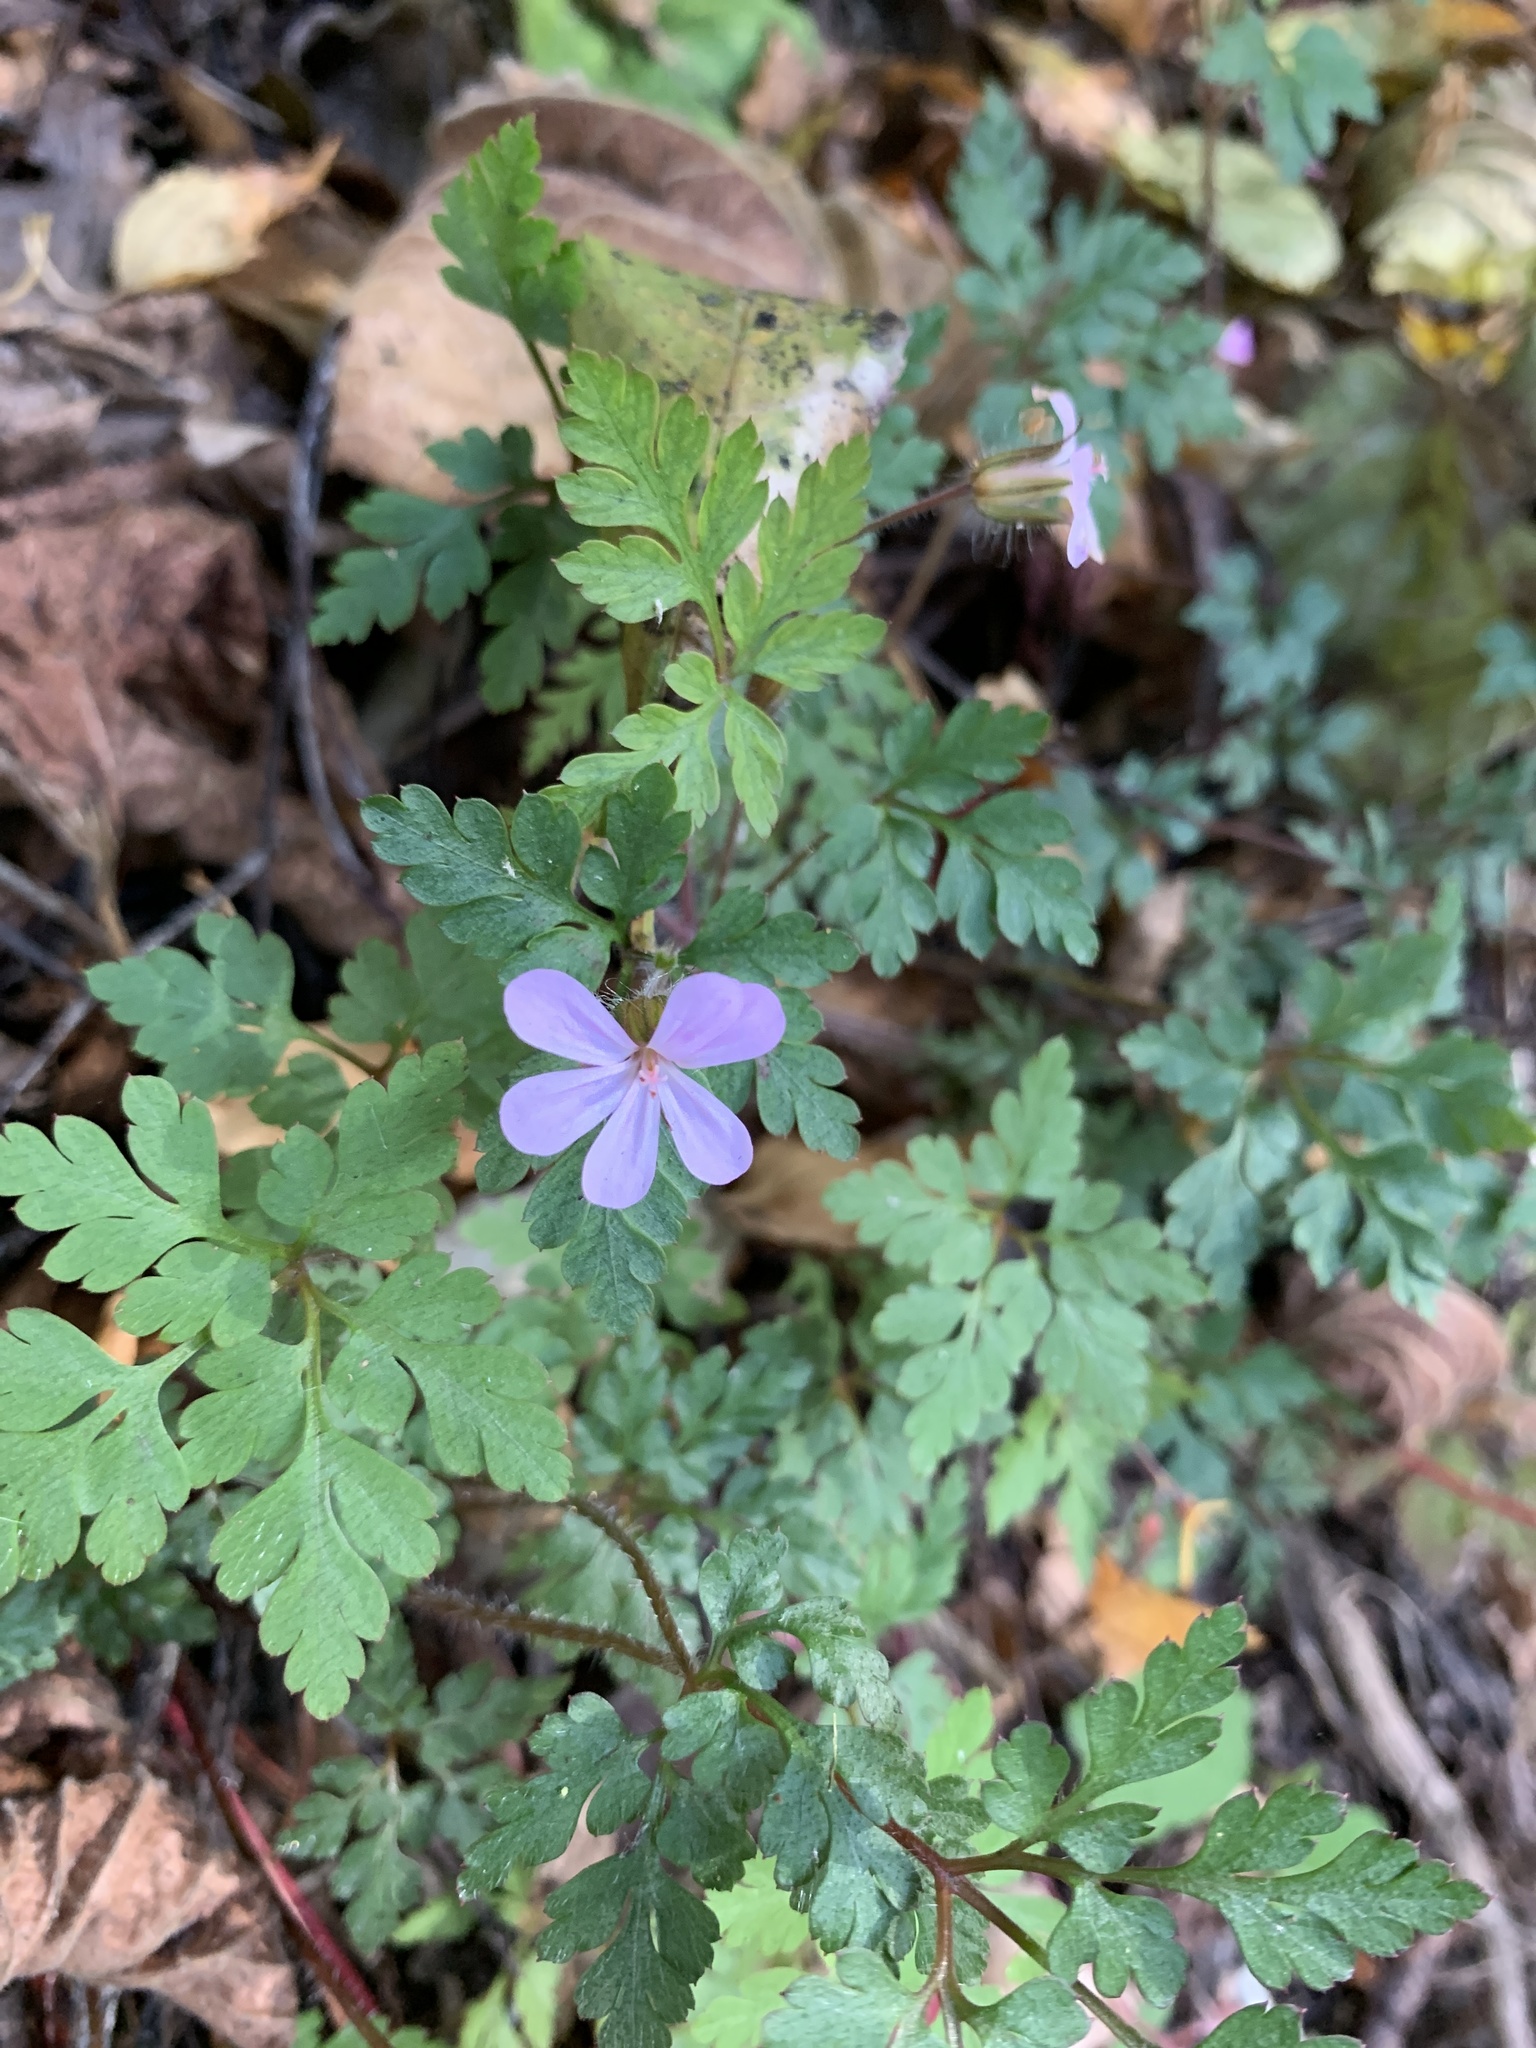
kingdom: Plantae
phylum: Tracheophyta
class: Magnoliopsida
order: Geraniales
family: Geraniaceae
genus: Geranium
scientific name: Geranium robertianum
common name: Herb-robert
